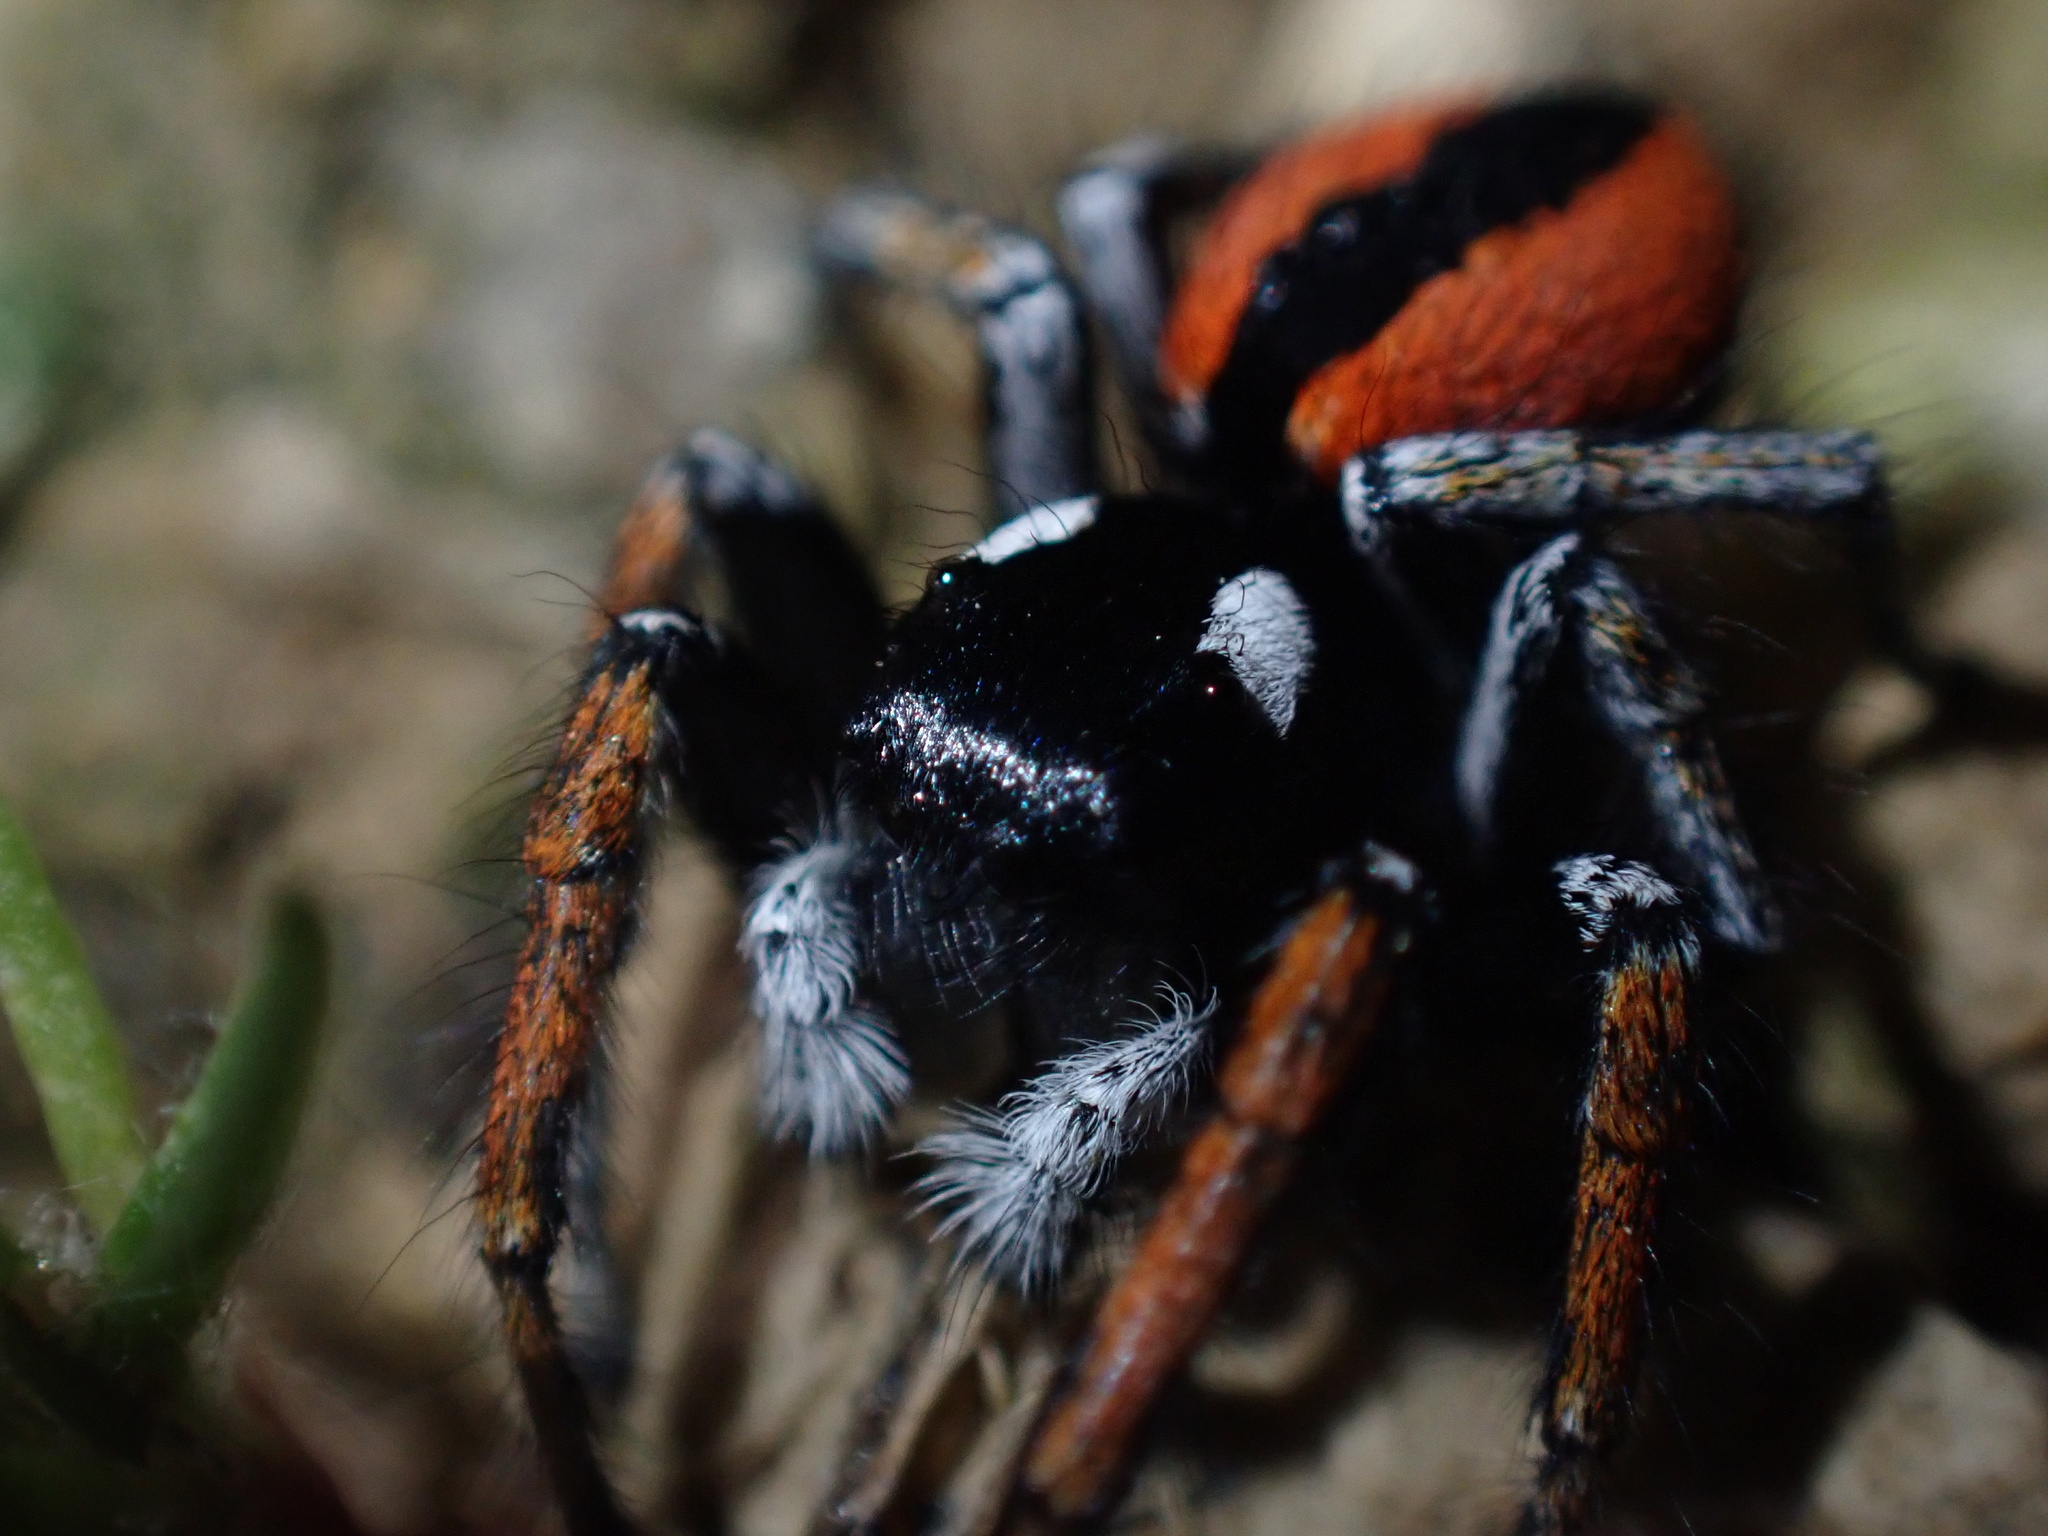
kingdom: Animalia
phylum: Arthropoda
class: Arachnida
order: Araneae
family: Salticidae
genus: Philaeus
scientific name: Philaeus chrysops
